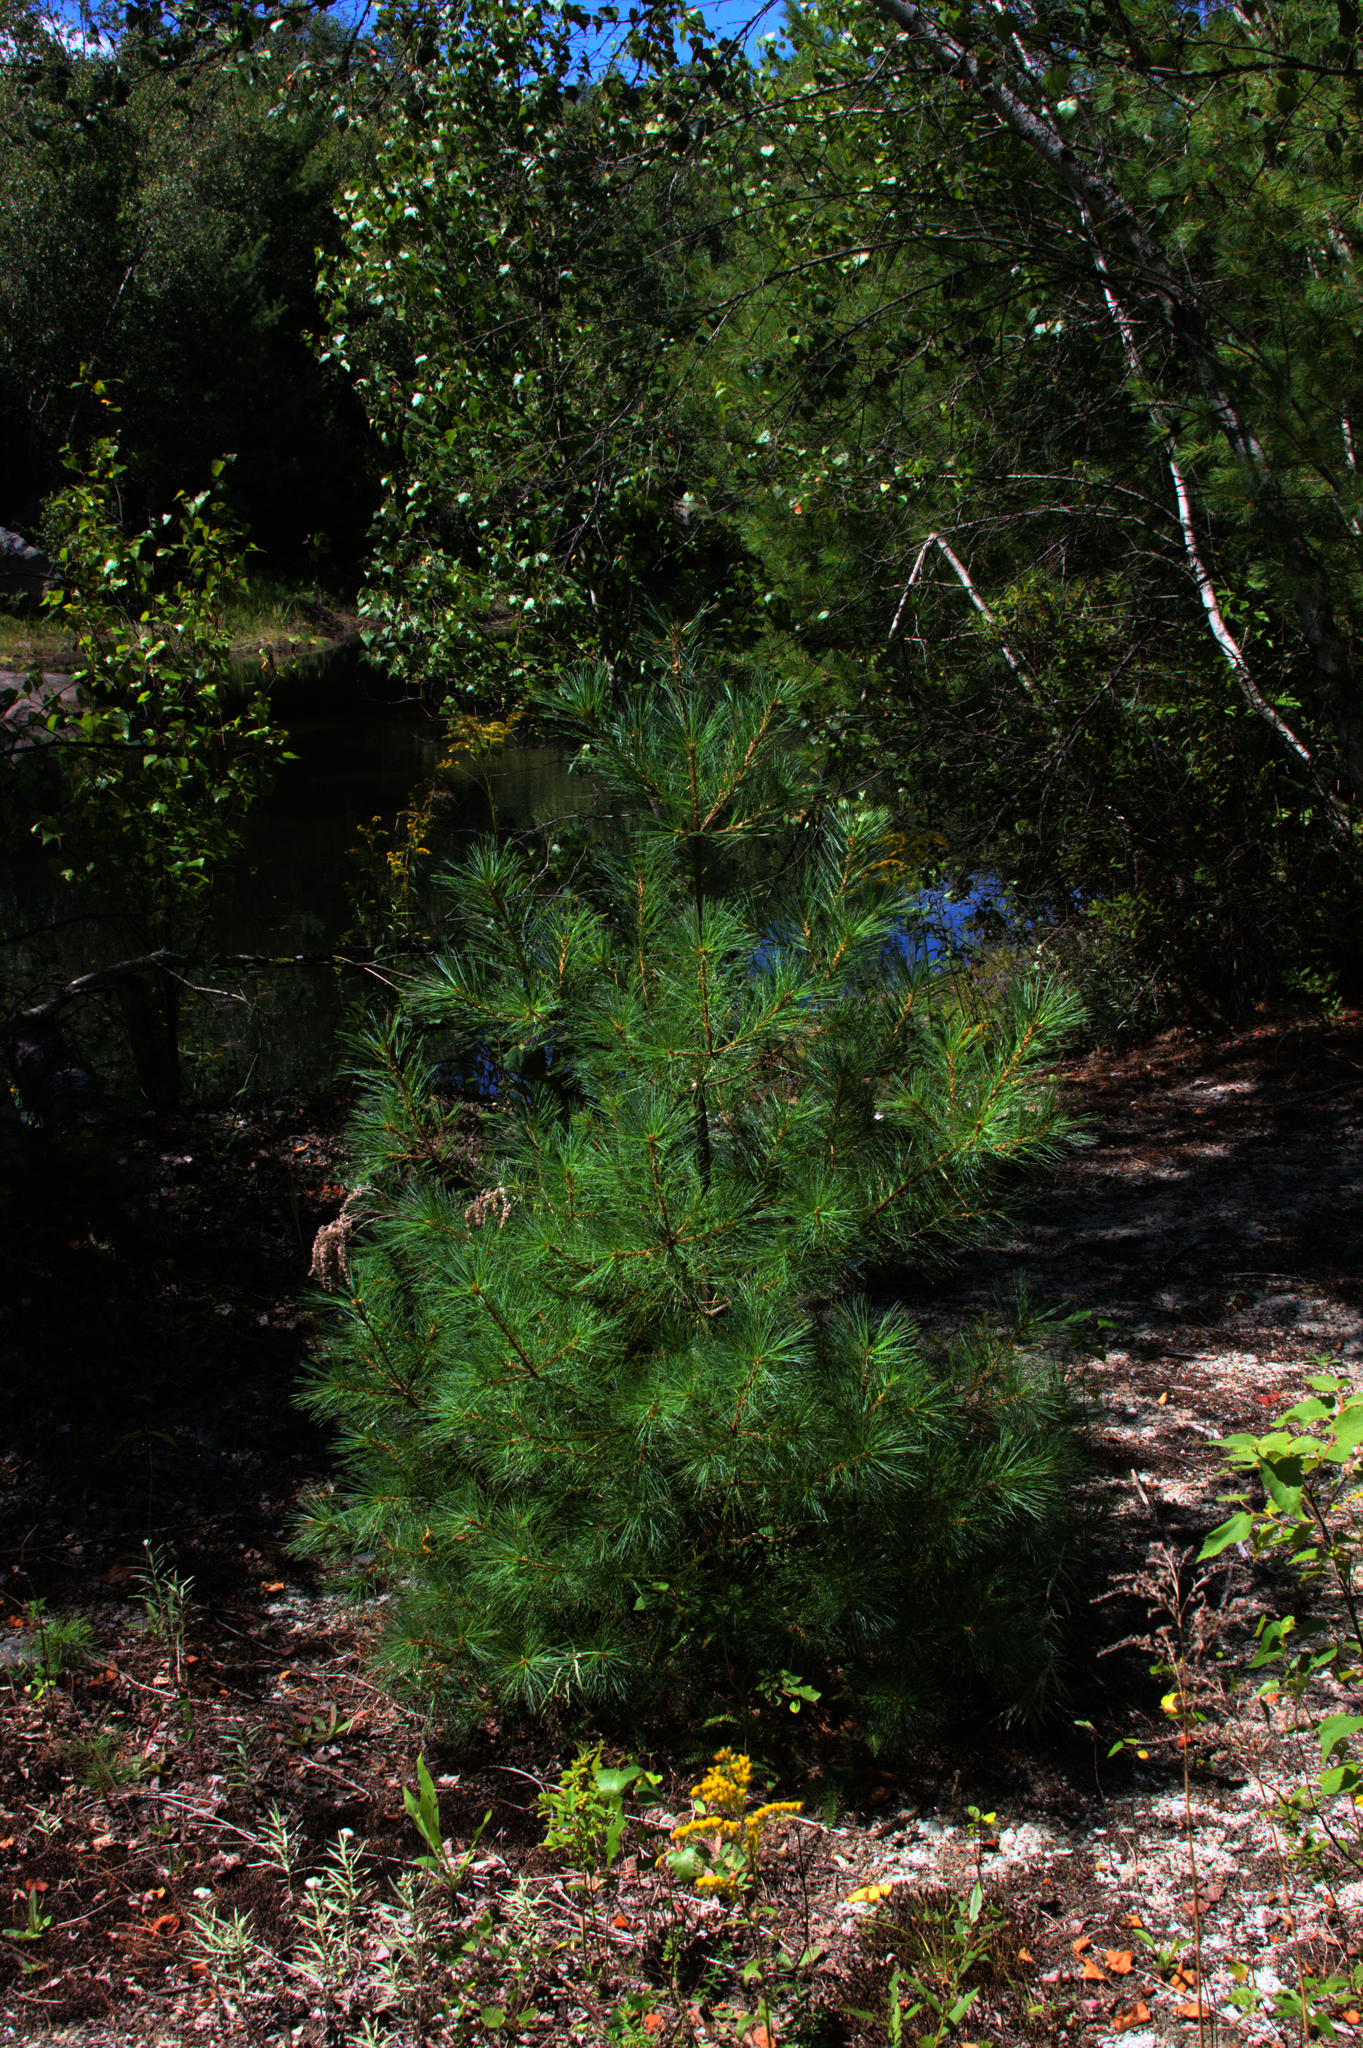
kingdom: Plantae
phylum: Tracheophyta
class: Pinopsida
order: Pinales
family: Pinaceae
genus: Pinus
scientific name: Pinus strobus
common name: Weymouth pine
